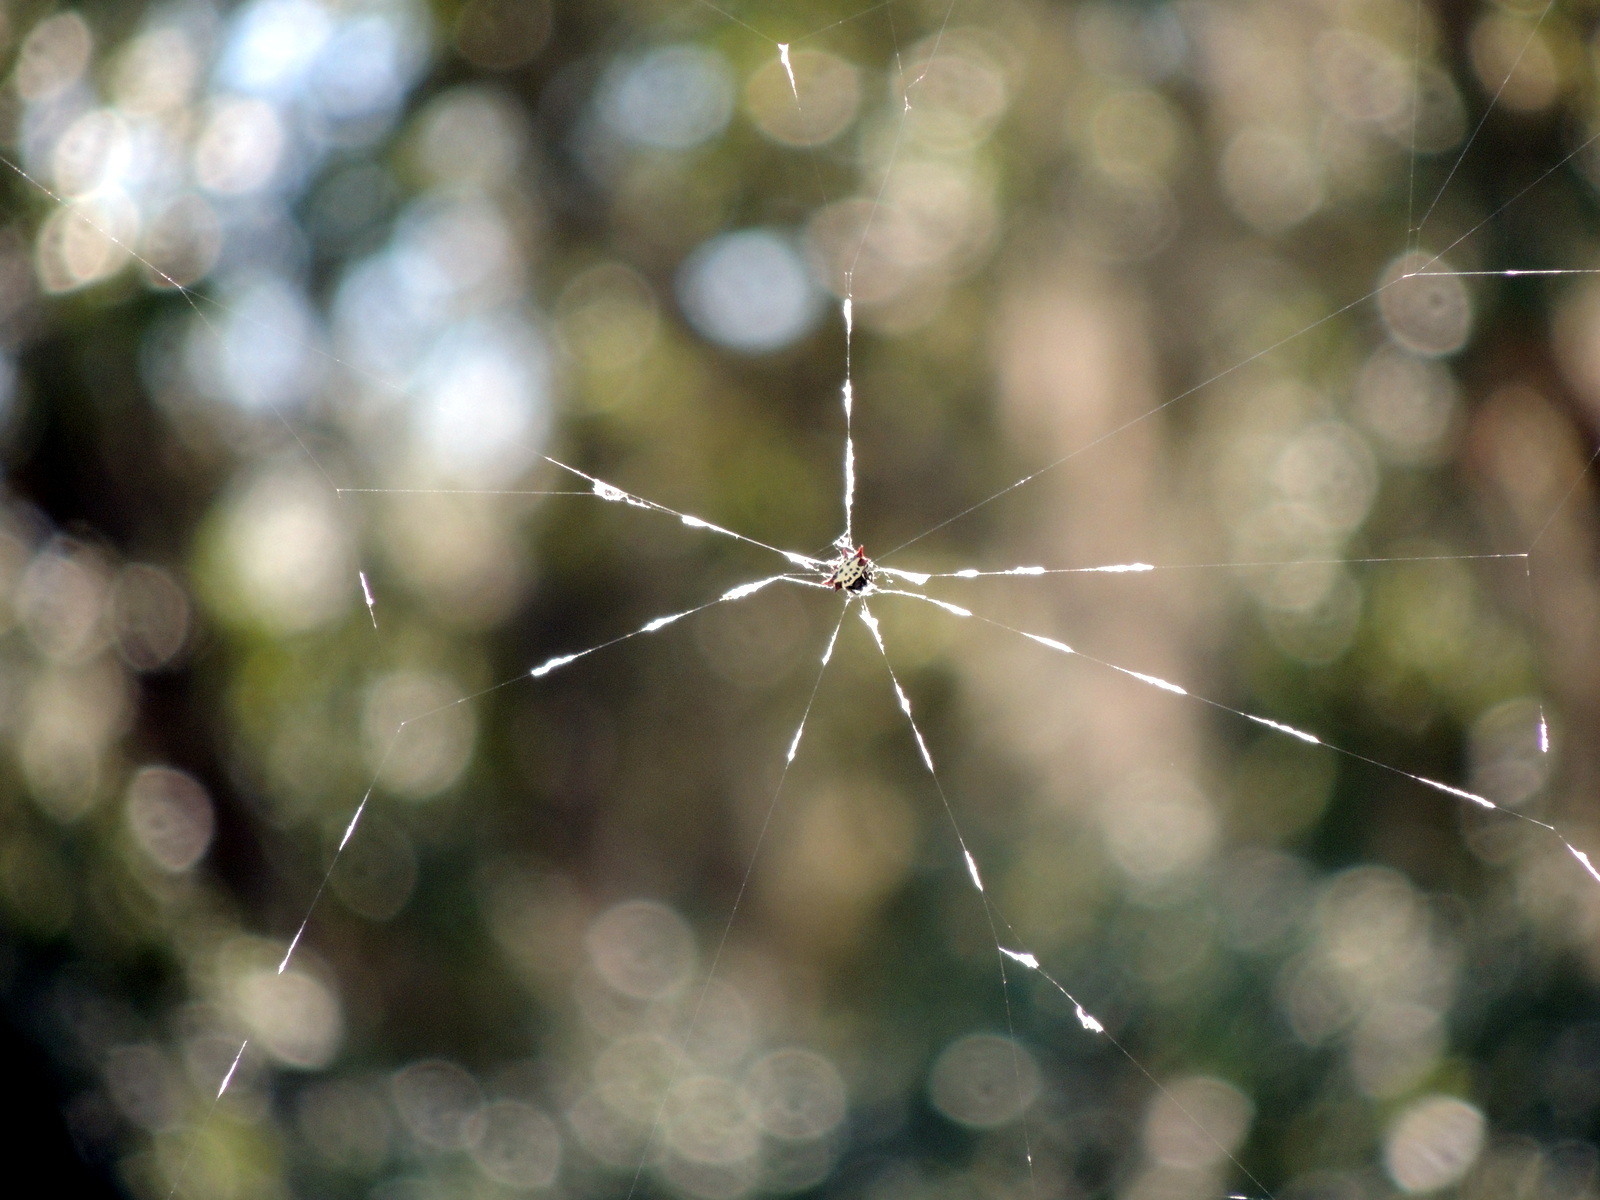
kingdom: Animalia
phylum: Arthropoda
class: Arachnida
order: Araneae
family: Araneidae
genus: Gasteracantha
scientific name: Gasteracantha cancriformis
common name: Orb weavers
